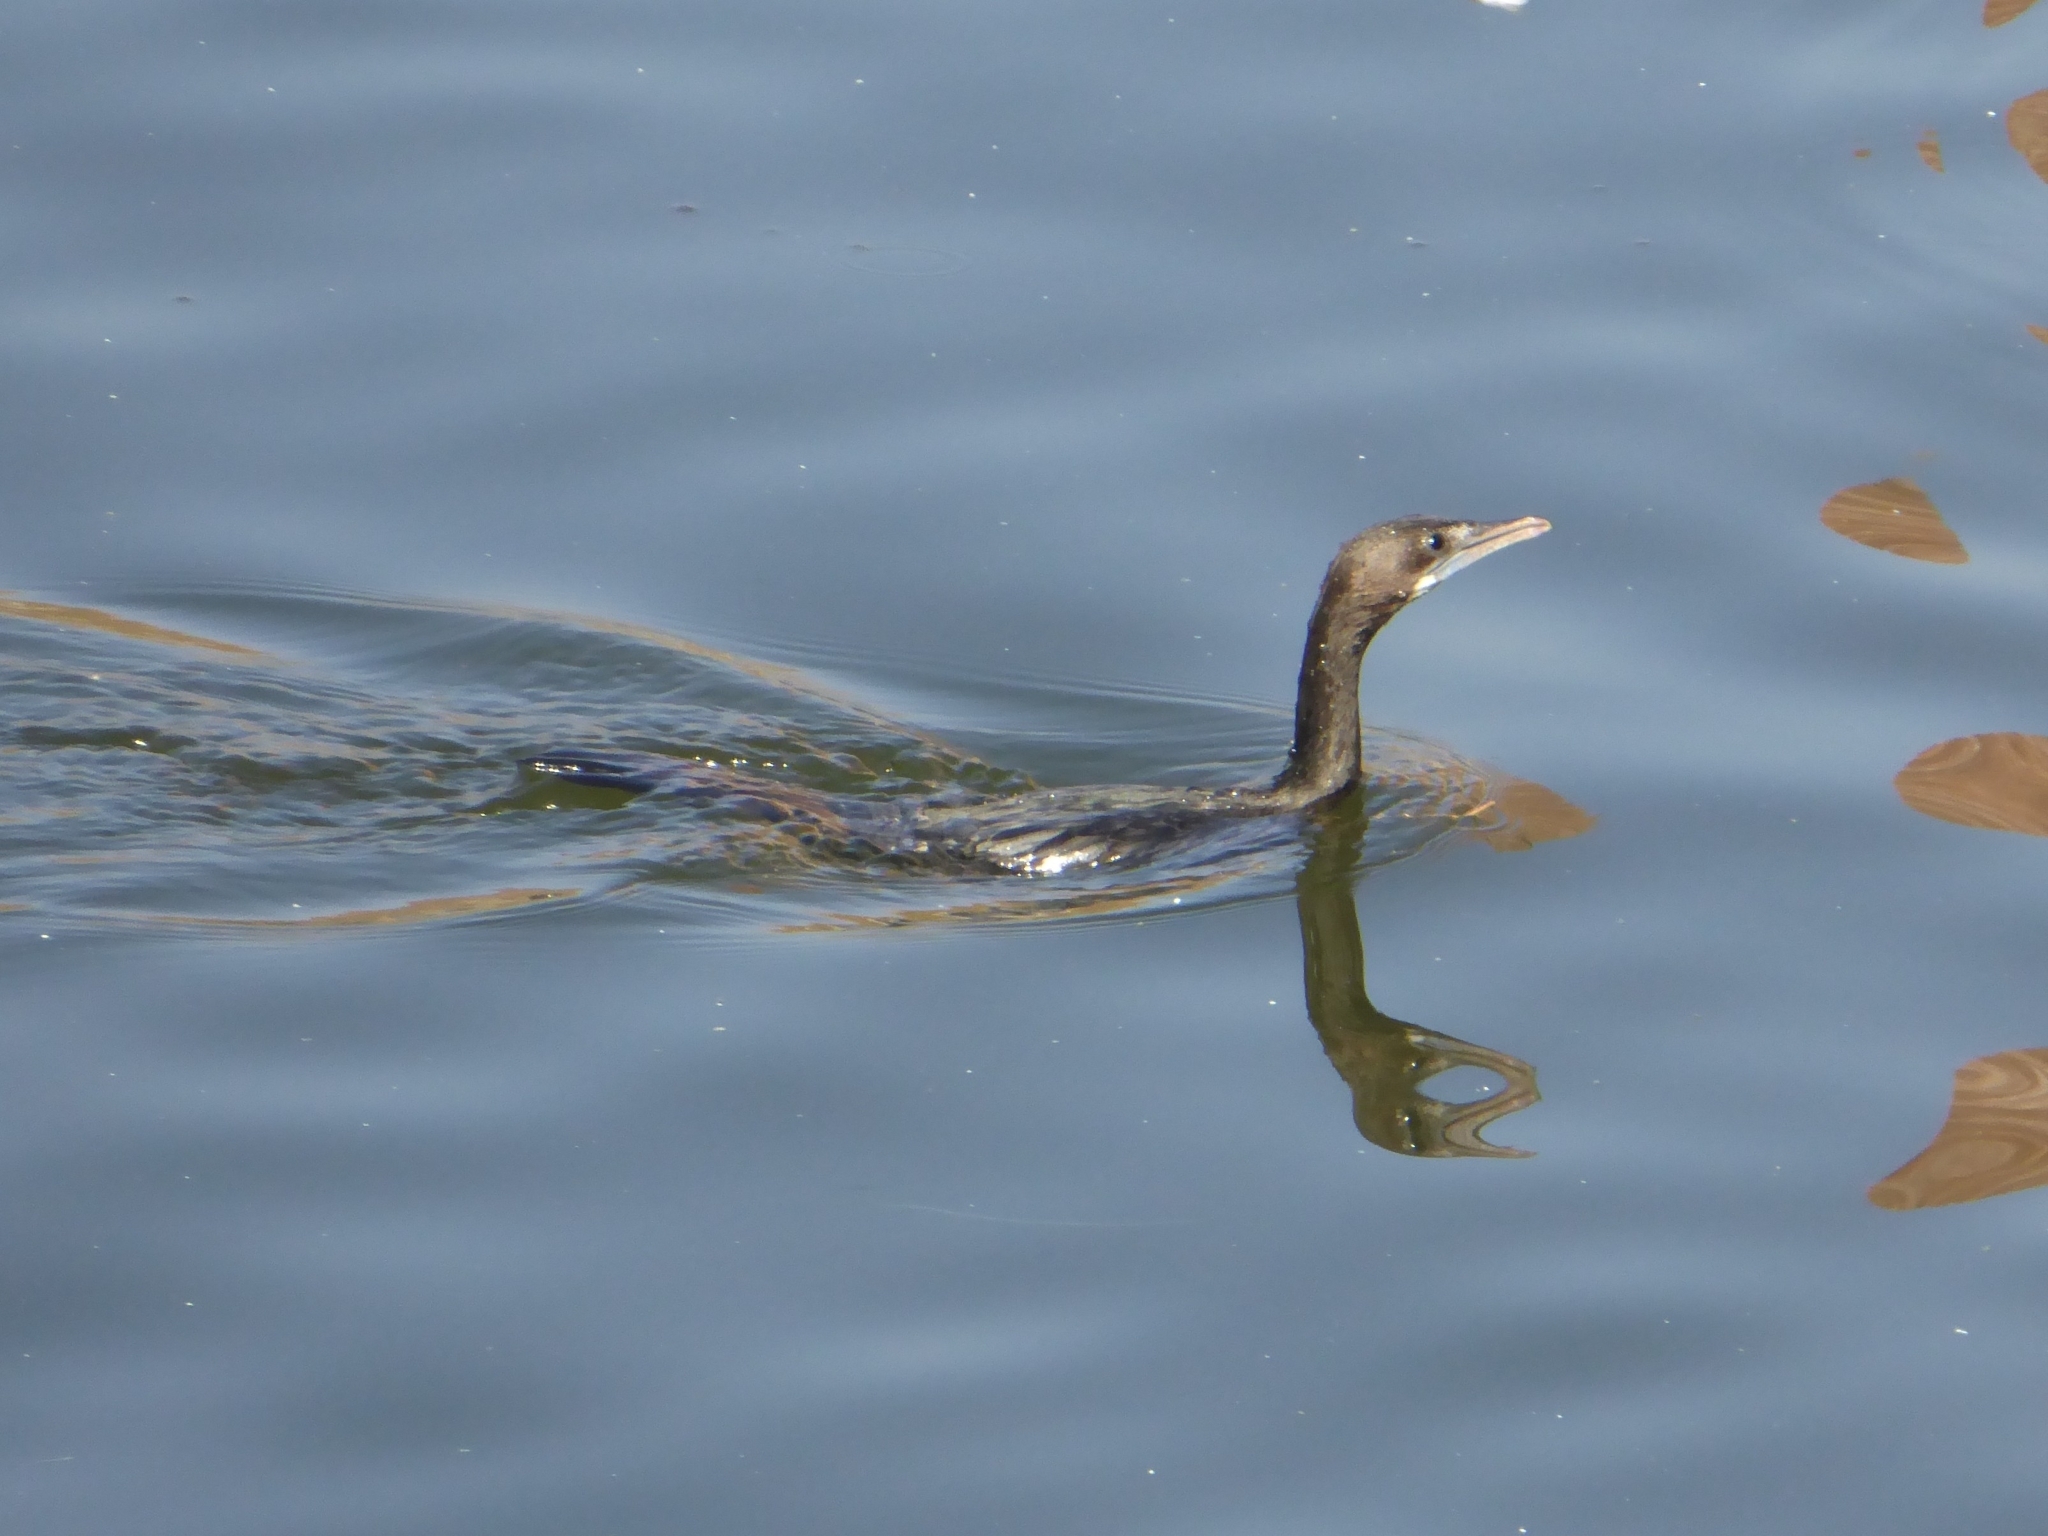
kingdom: Animalia
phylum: Chordata
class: Aves
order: Suliformes
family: Phalacrocoracidae
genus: Microcarbo
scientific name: Microcarbo niger
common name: Little cormorant
